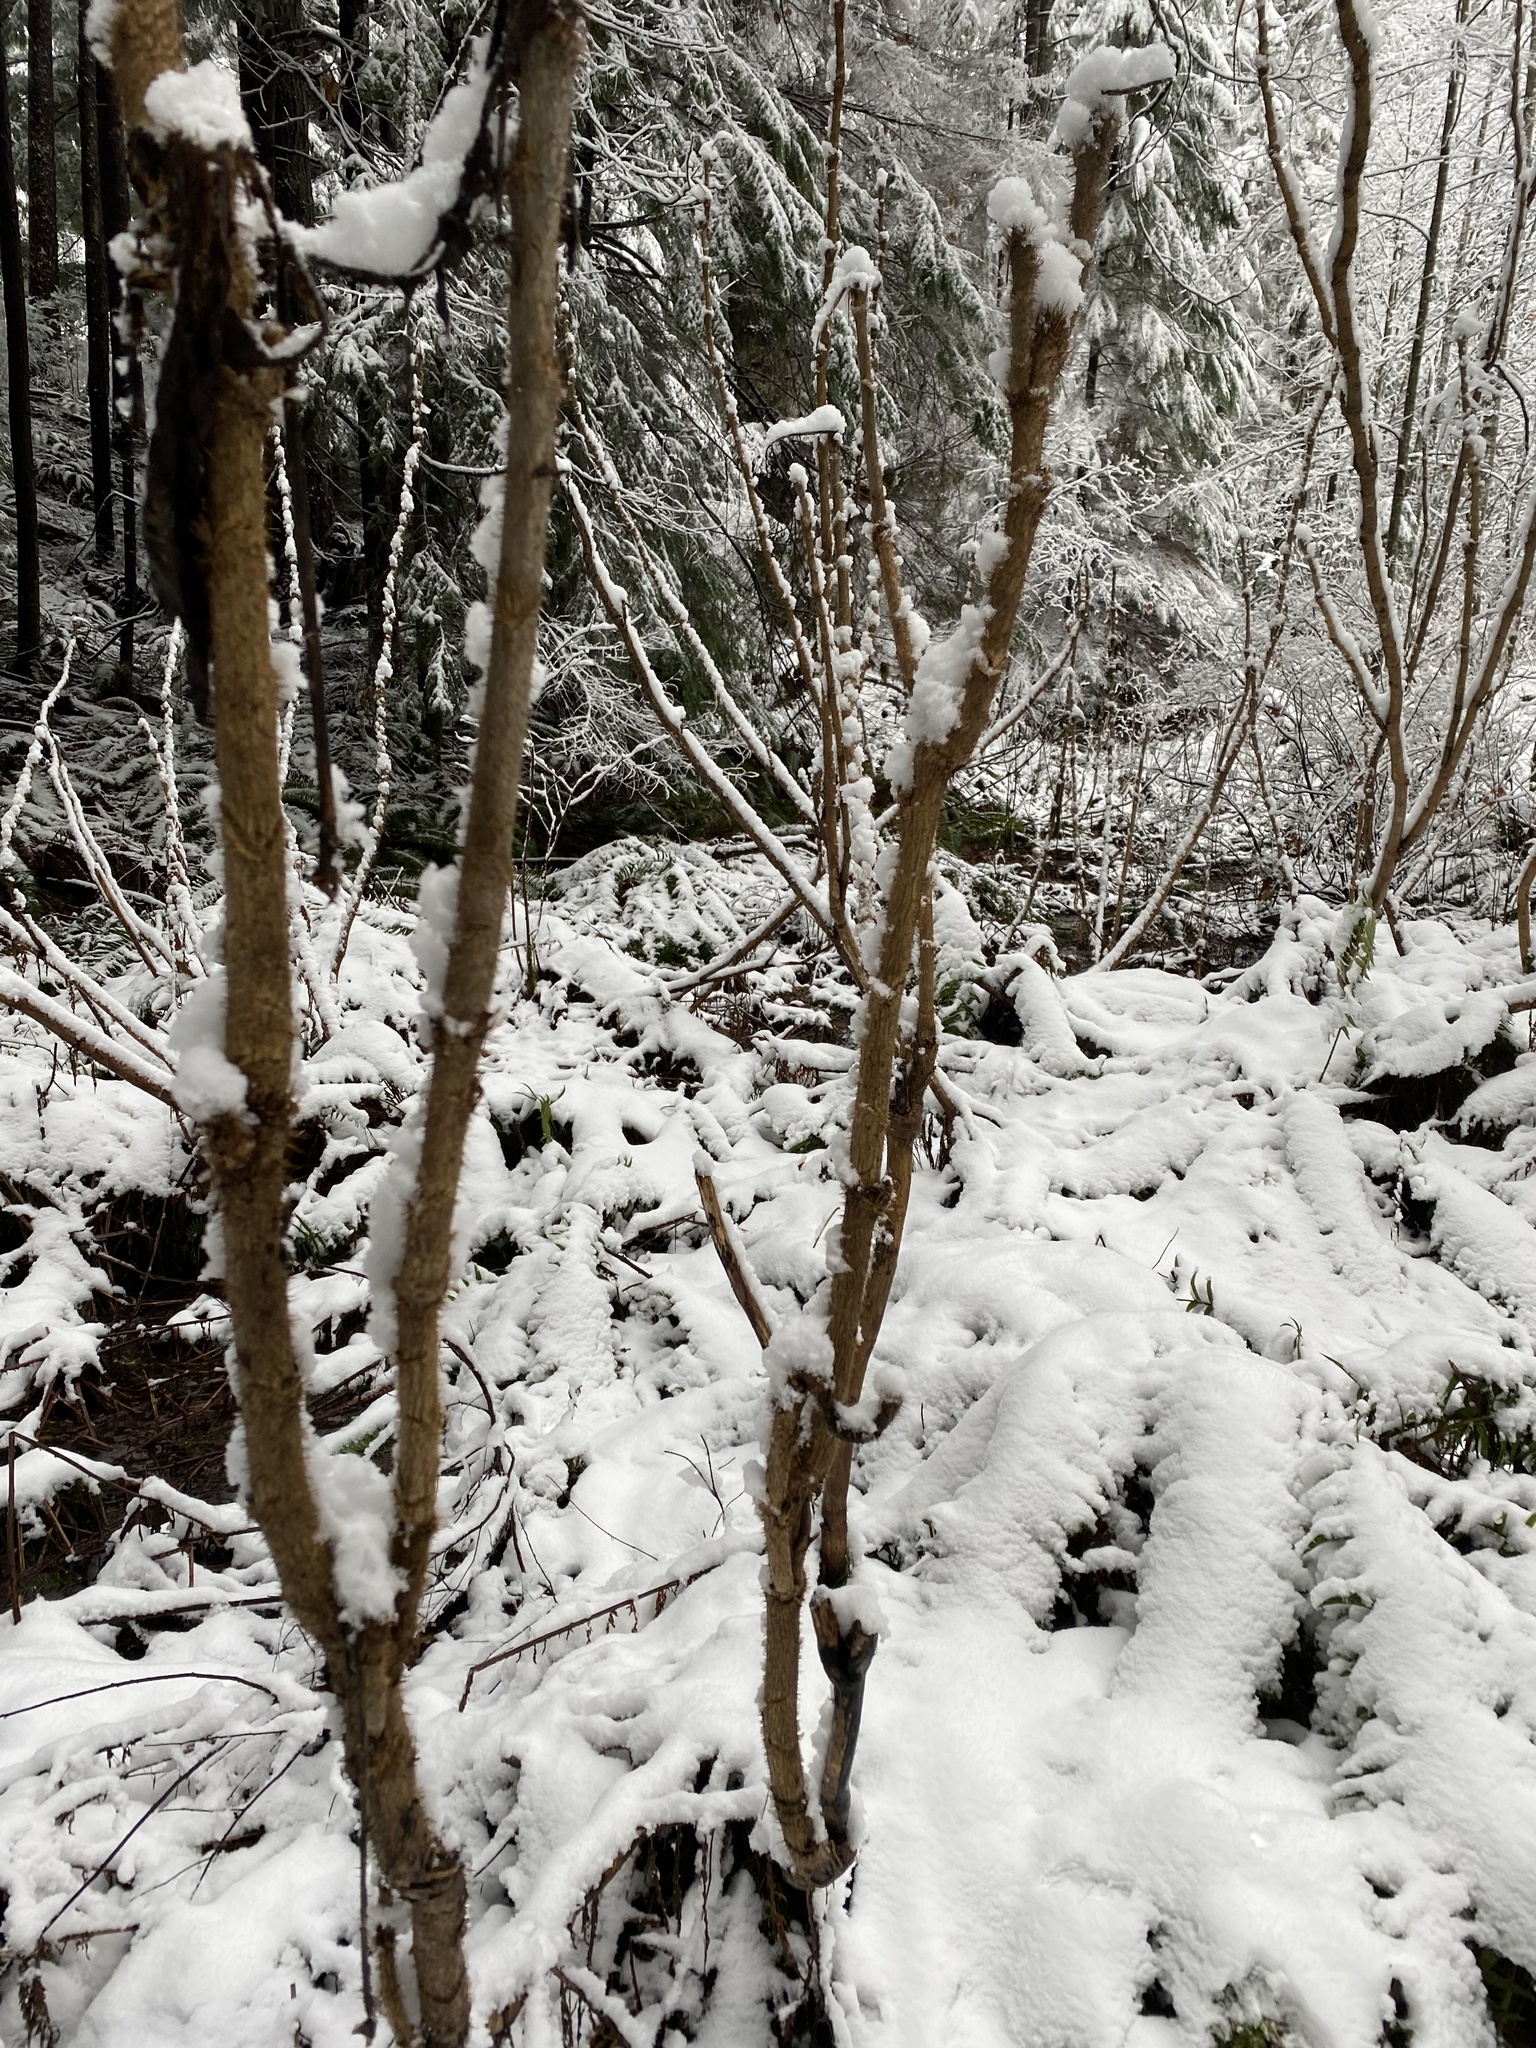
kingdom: Plantae
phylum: Tracheophyta
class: Magnoliopsida
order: Apiales
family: Araliaceae
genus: Oplopanax
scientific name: Oplopanax horridus
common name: Devil's walking-stick
